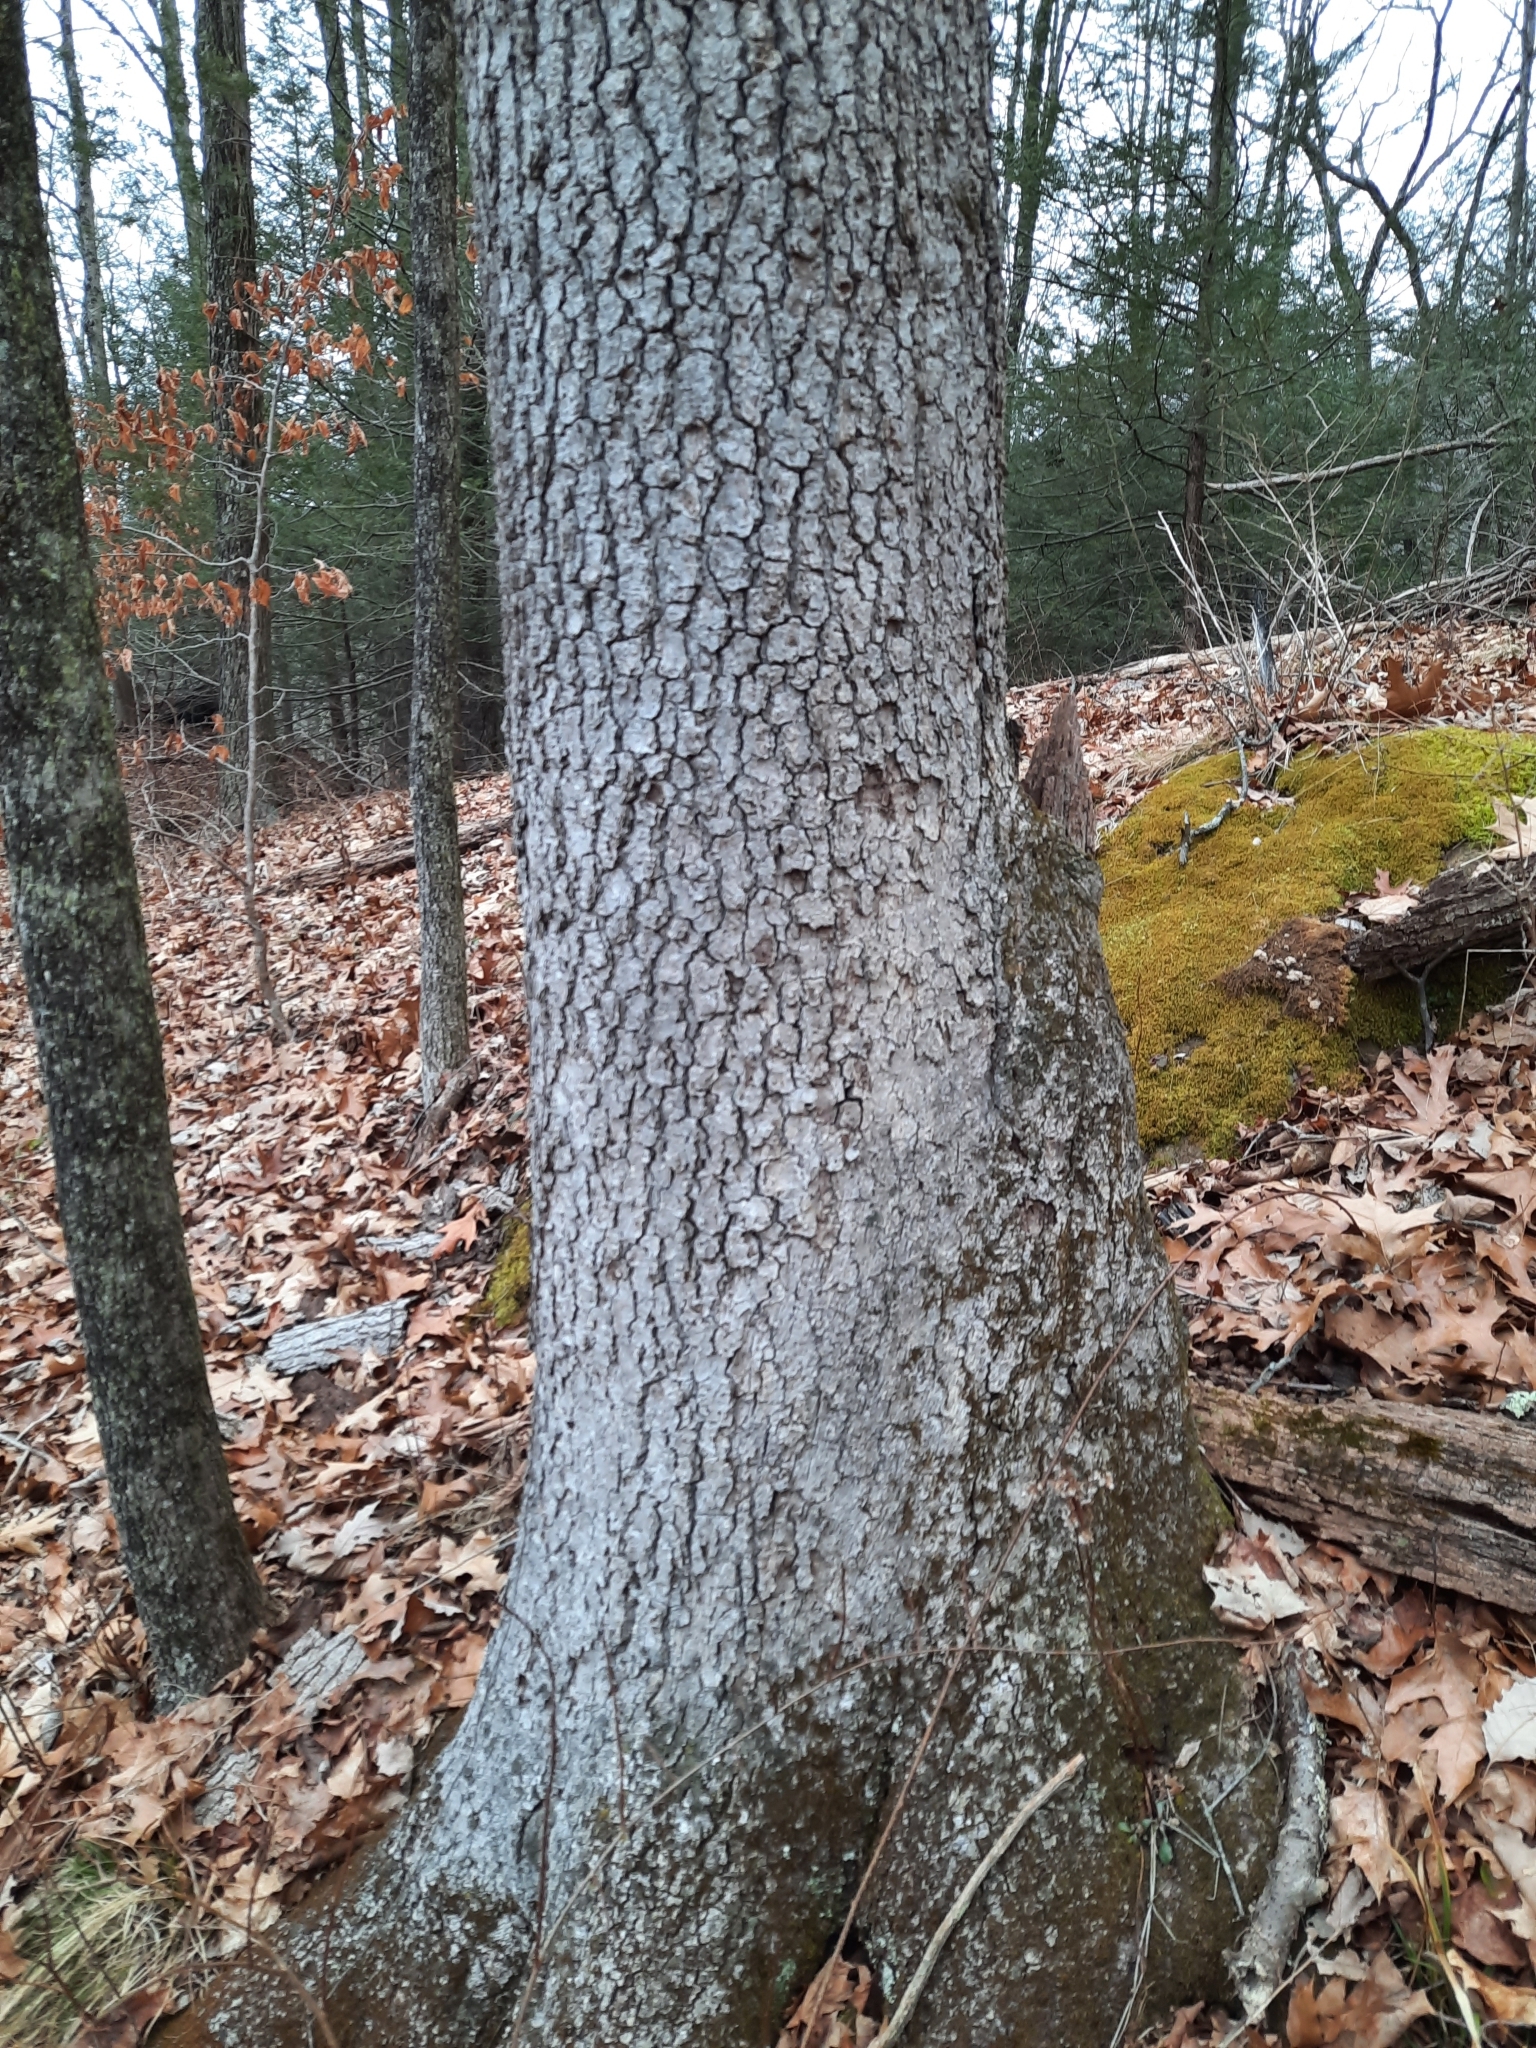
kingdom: Plantae
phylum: Tracheophyta
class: Magnoliopsida
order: Fagales
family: Fagaceae
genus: Quercus
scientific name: Quercus alba
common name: White oak
